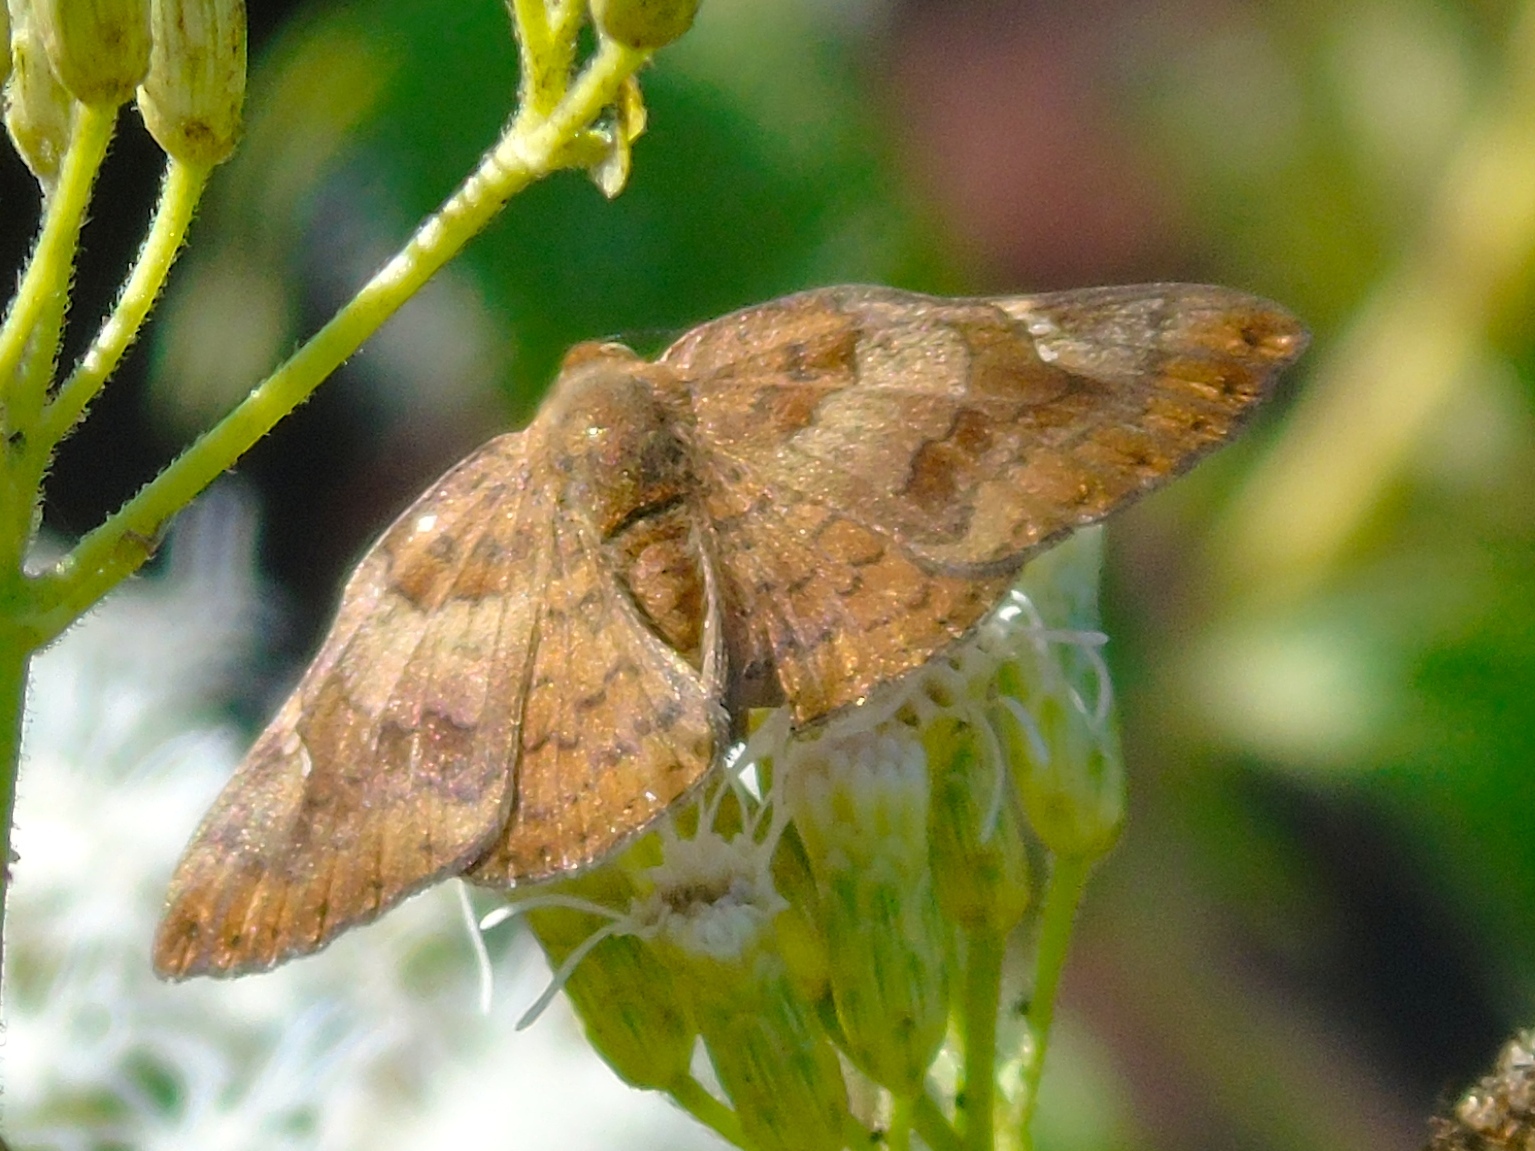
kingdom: Animalia
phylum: Arthropoda
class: Insecta
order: Lepidoptera
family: Riodinidae
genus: Curvie
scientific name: Curvie emesia
